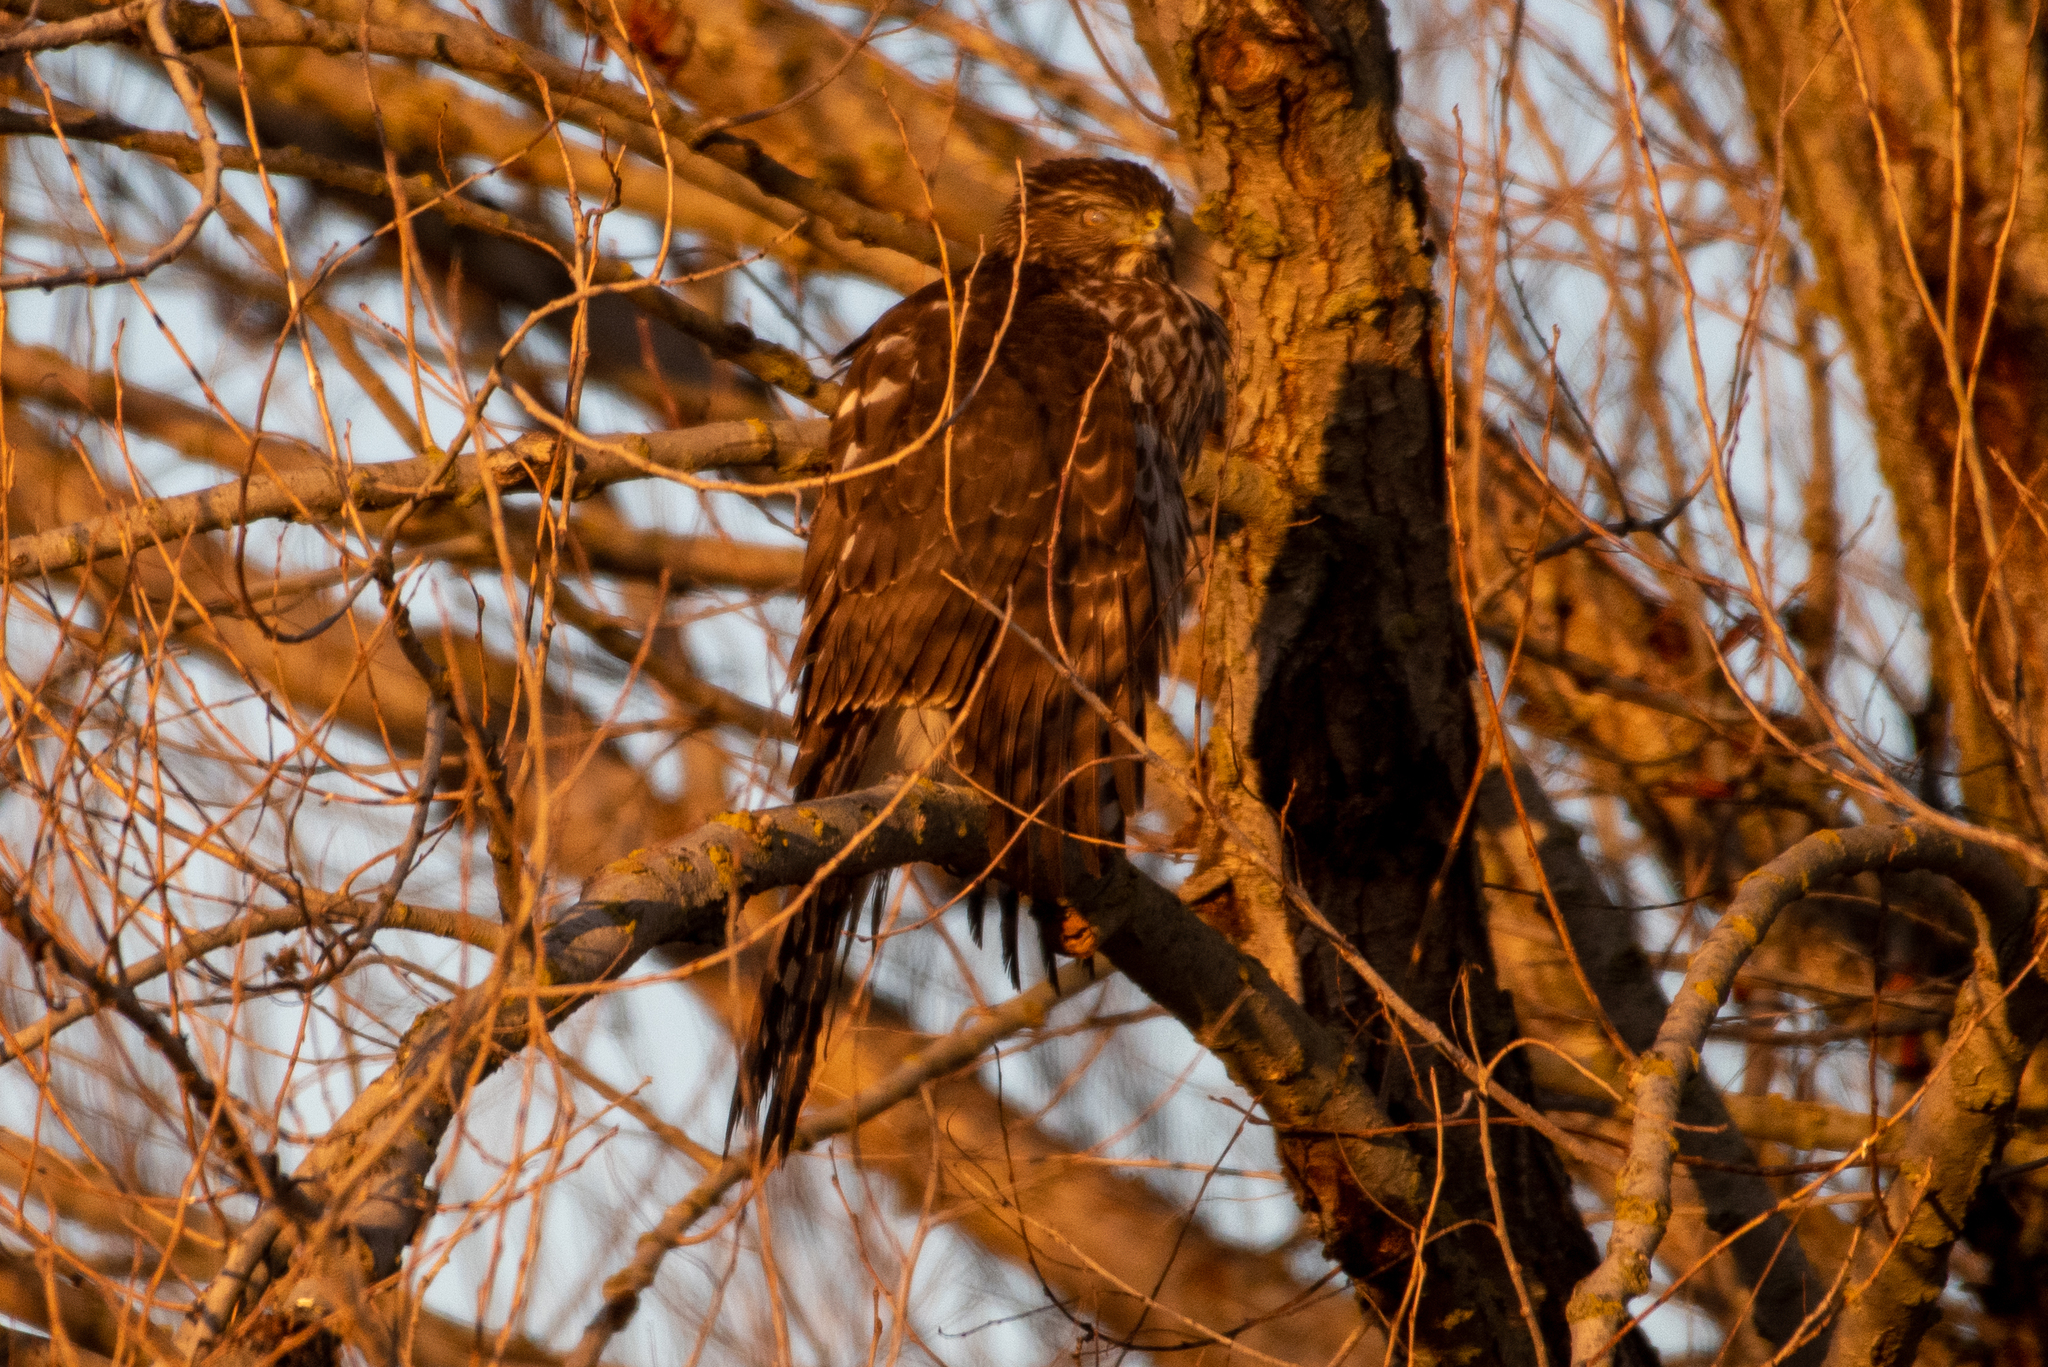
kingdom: Animalia
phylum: Chordata
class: Aves
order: Accipitriformes
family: Accipitridae
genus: Accipiter
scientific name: Accipiter cooperii
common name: Cooper's hawk
